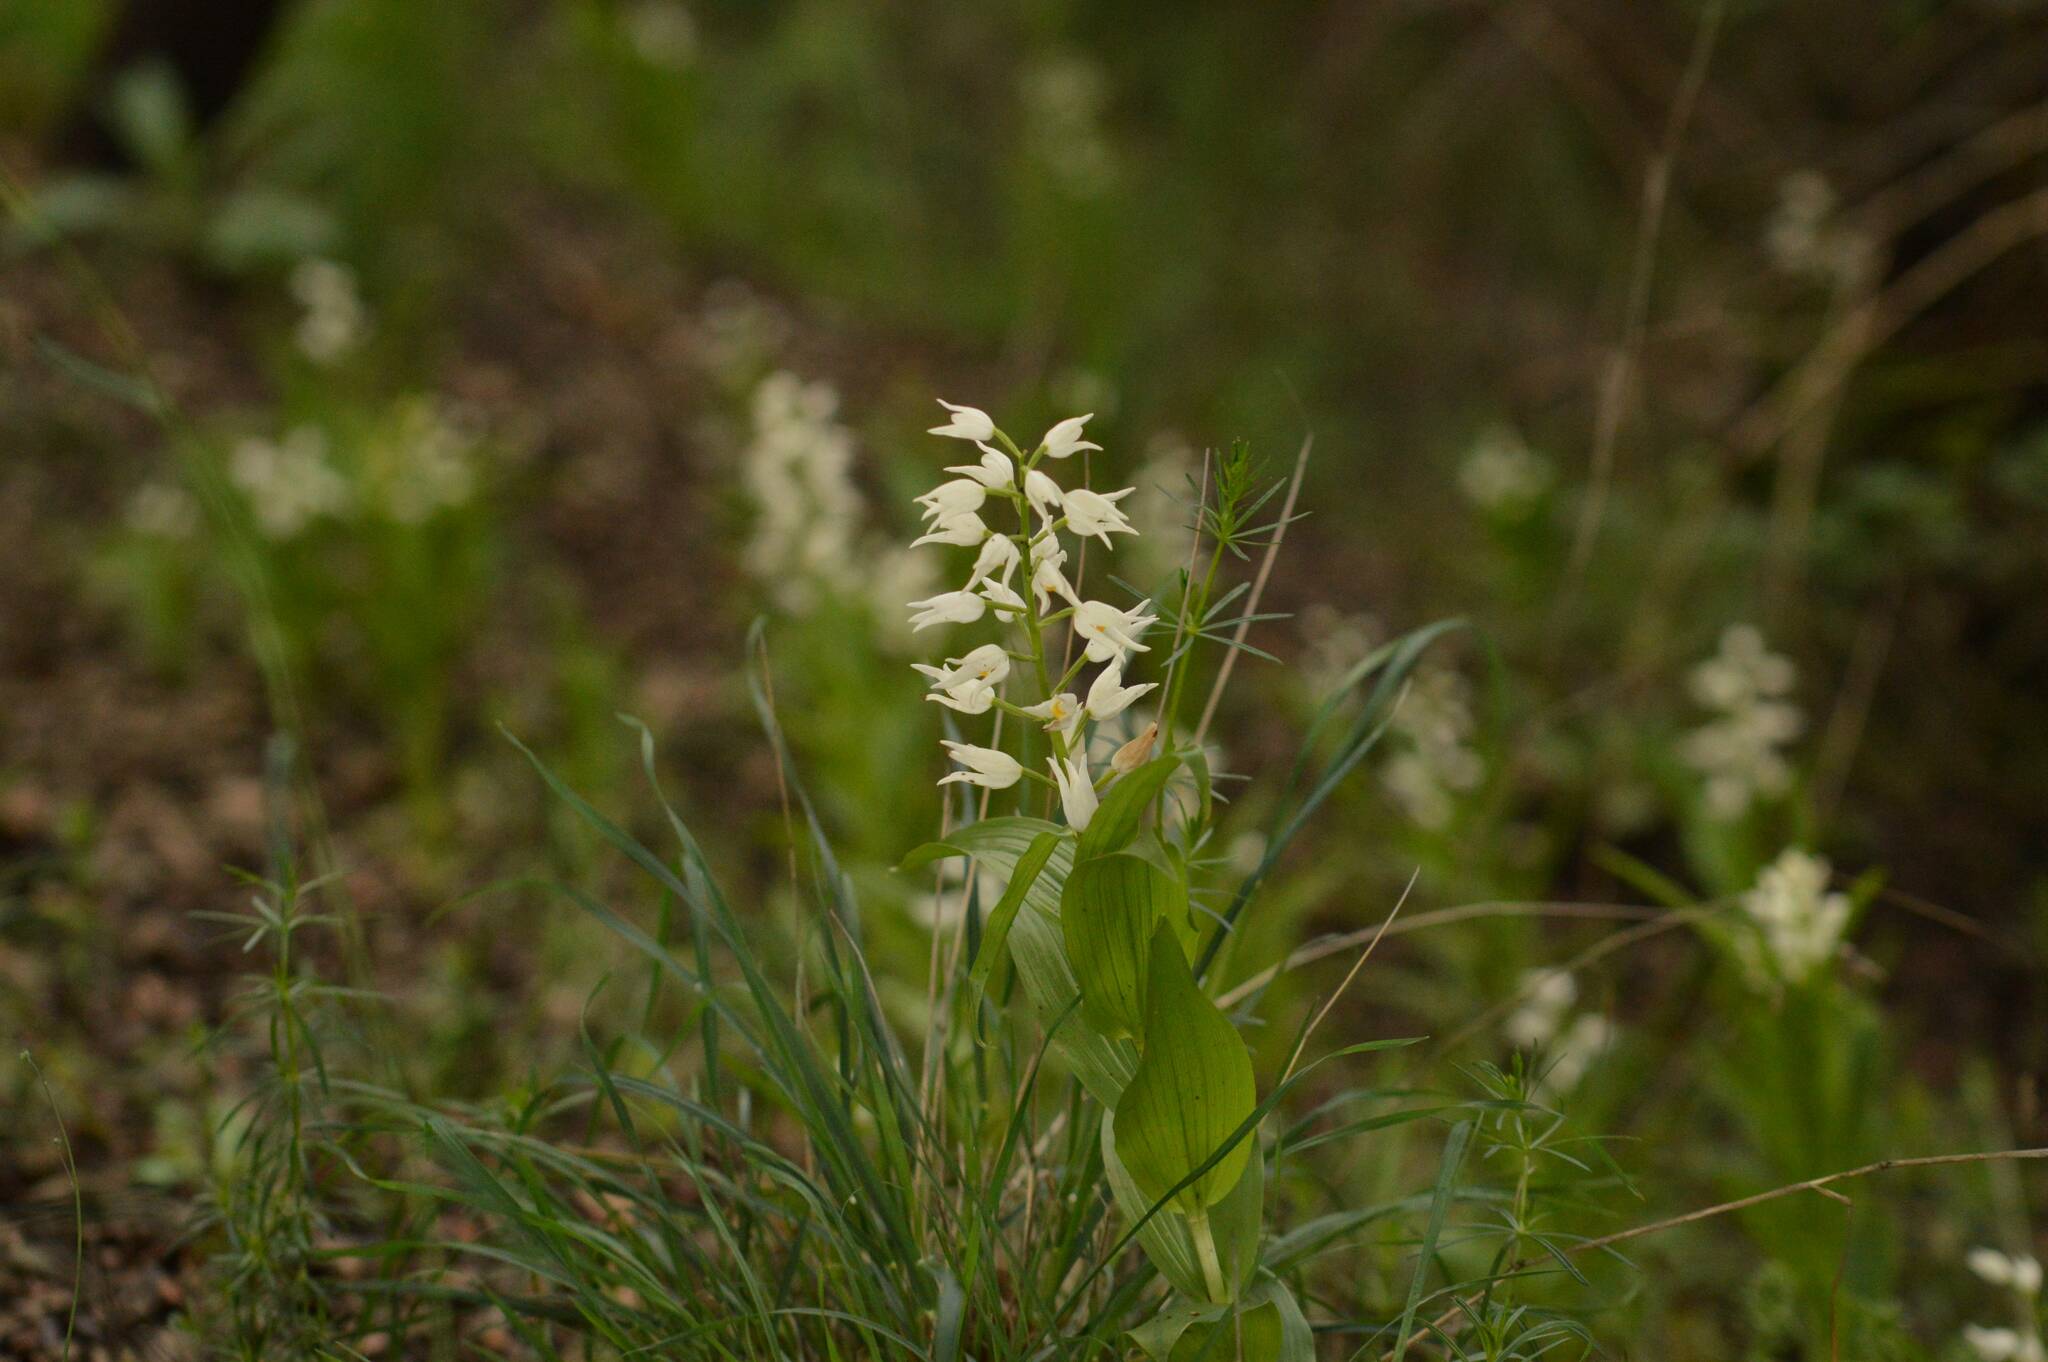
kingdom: Plantae
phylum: Tracheophyta
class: Liliopsida
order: Asparagales
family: Orchidaceae
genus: Cephalanthera
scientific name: Cephalanthera longifolia
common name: Narrow-leaved helleborine
